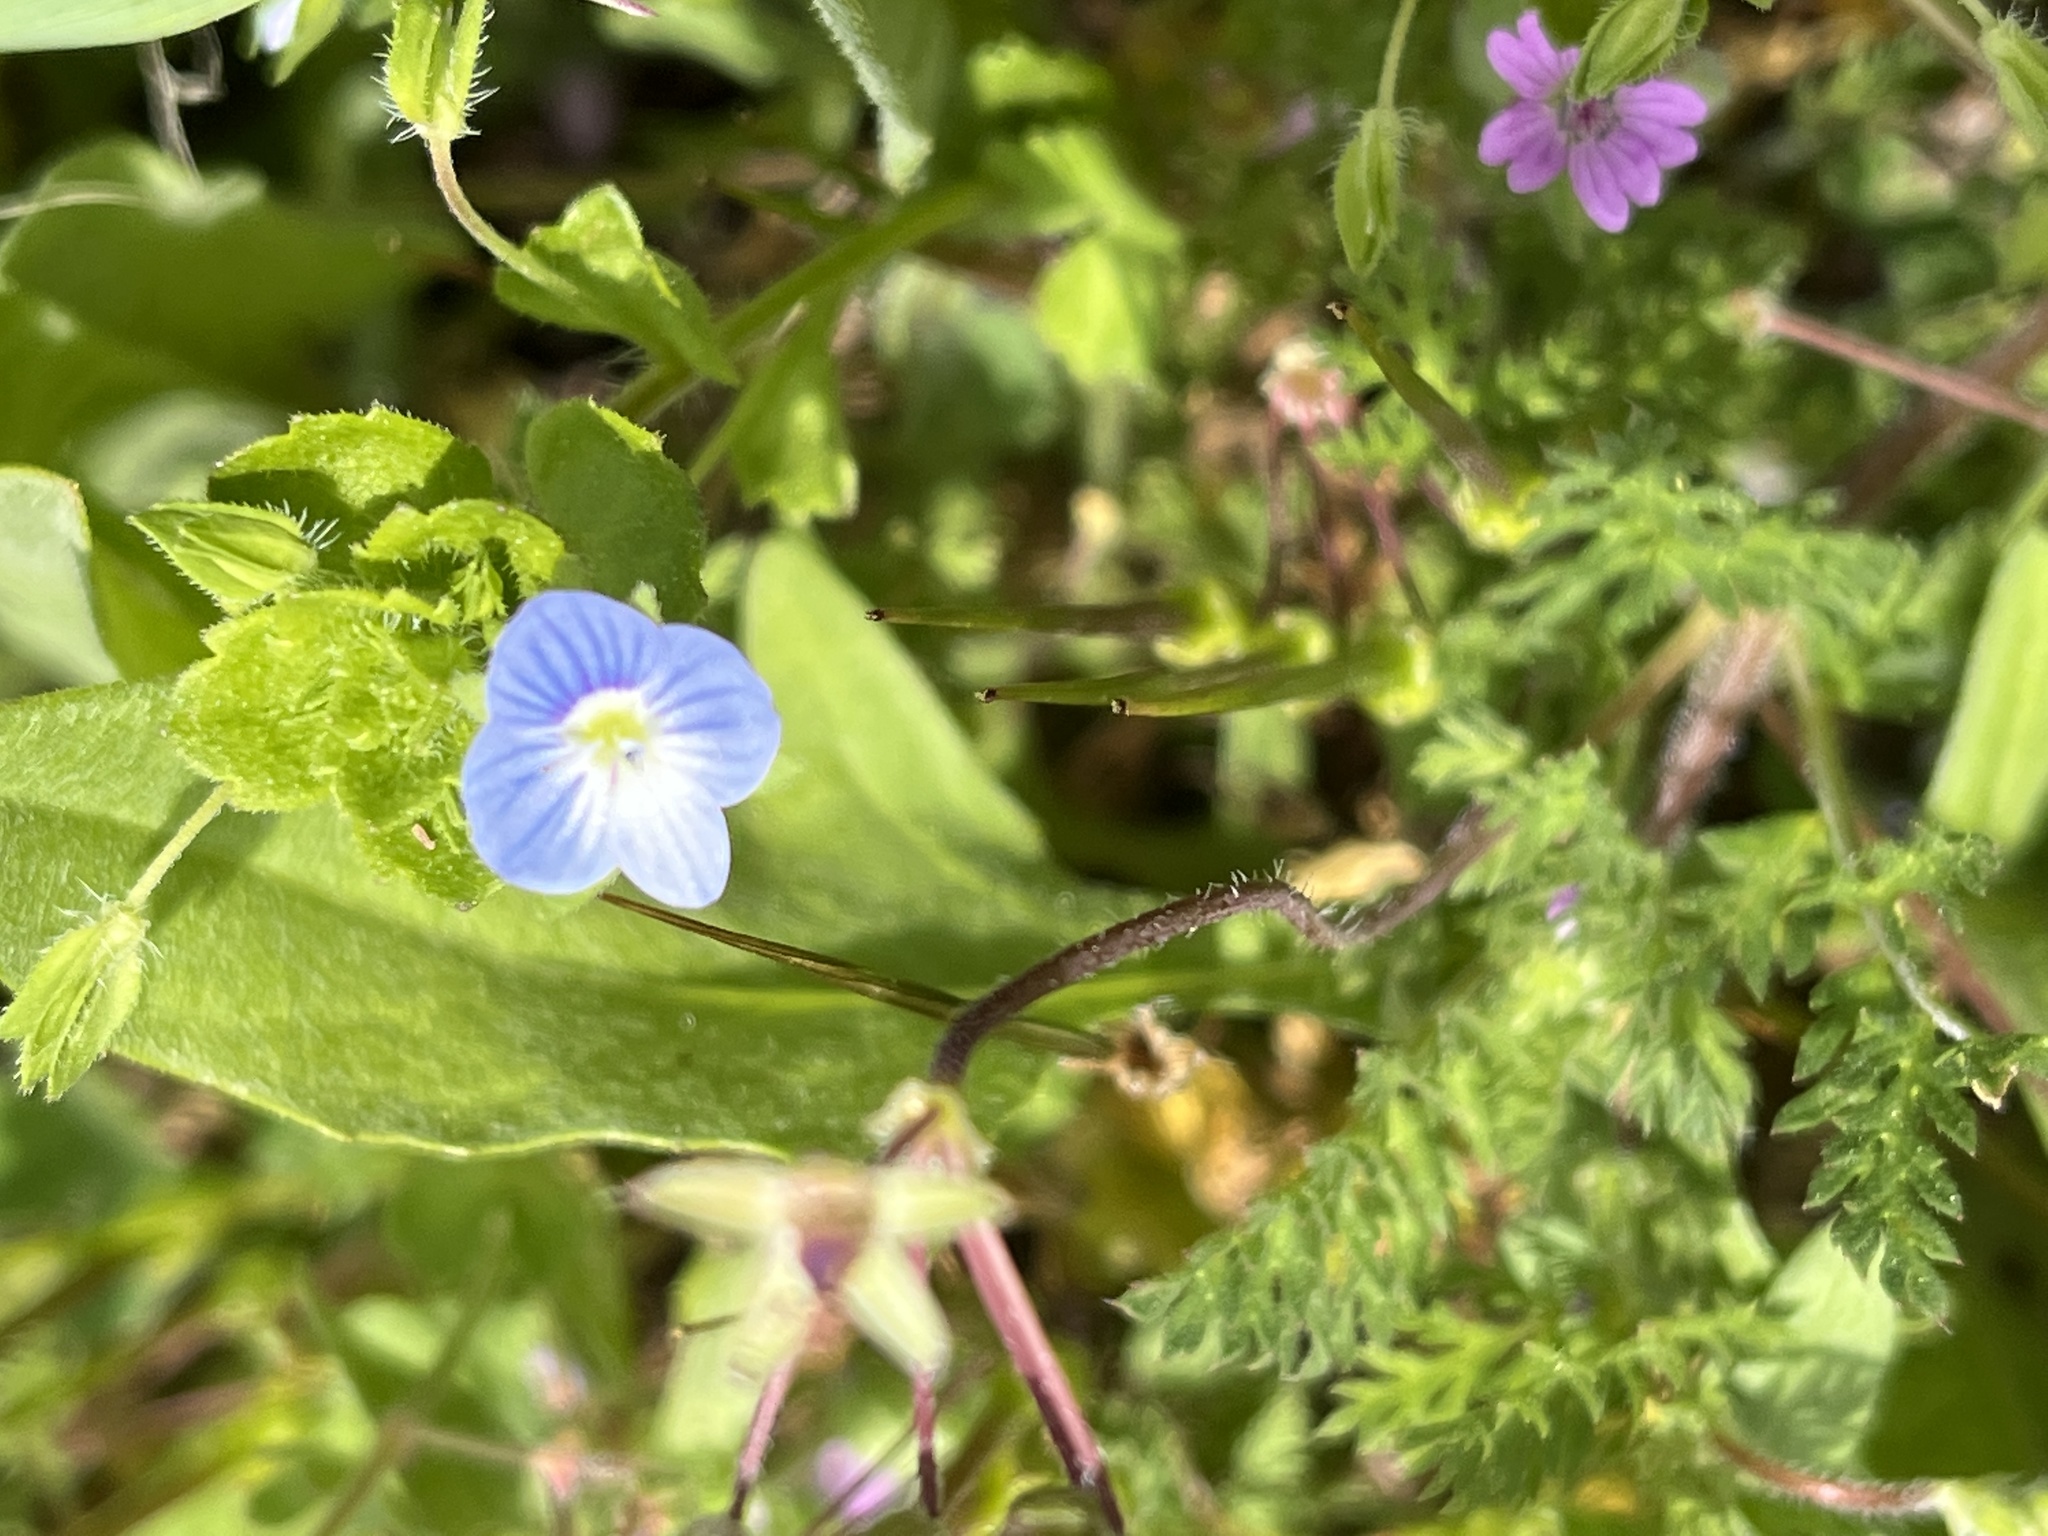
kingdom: Plantae
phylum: Tracheophyta
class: Magnoliopsida
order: Lamiales
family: Plantaginaceae
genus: Veronica
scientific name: Veronica persica
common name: Common field-speedwell
